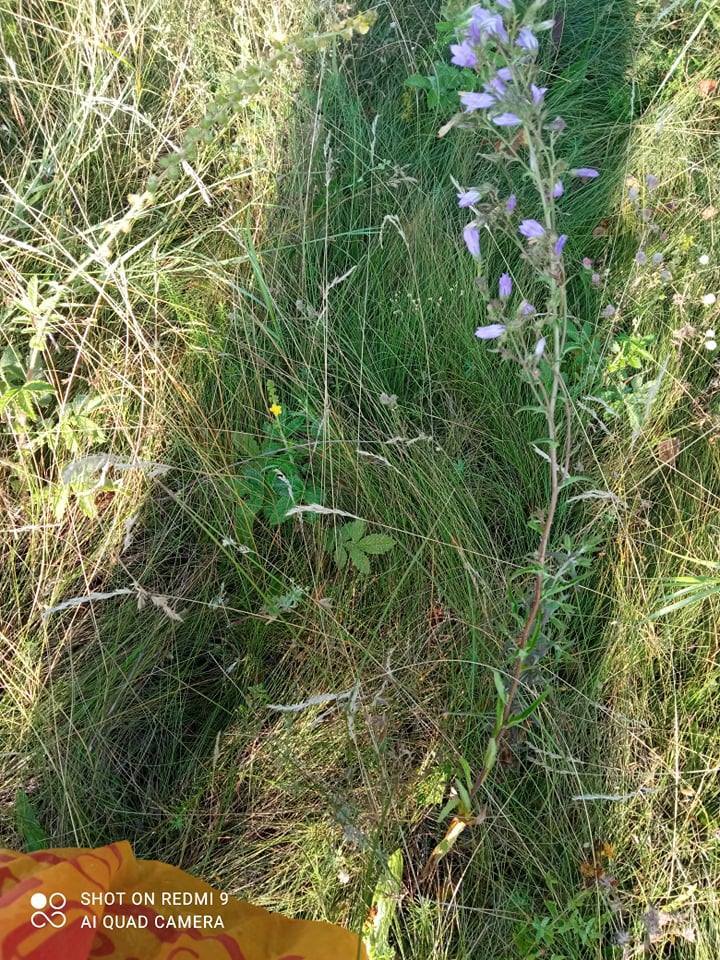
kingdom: Plantae
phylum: Tracheophyta
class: Magnoliopsida
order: Asterales
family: Campanulaceae
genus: Campanula
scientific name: Campanula sibirica
